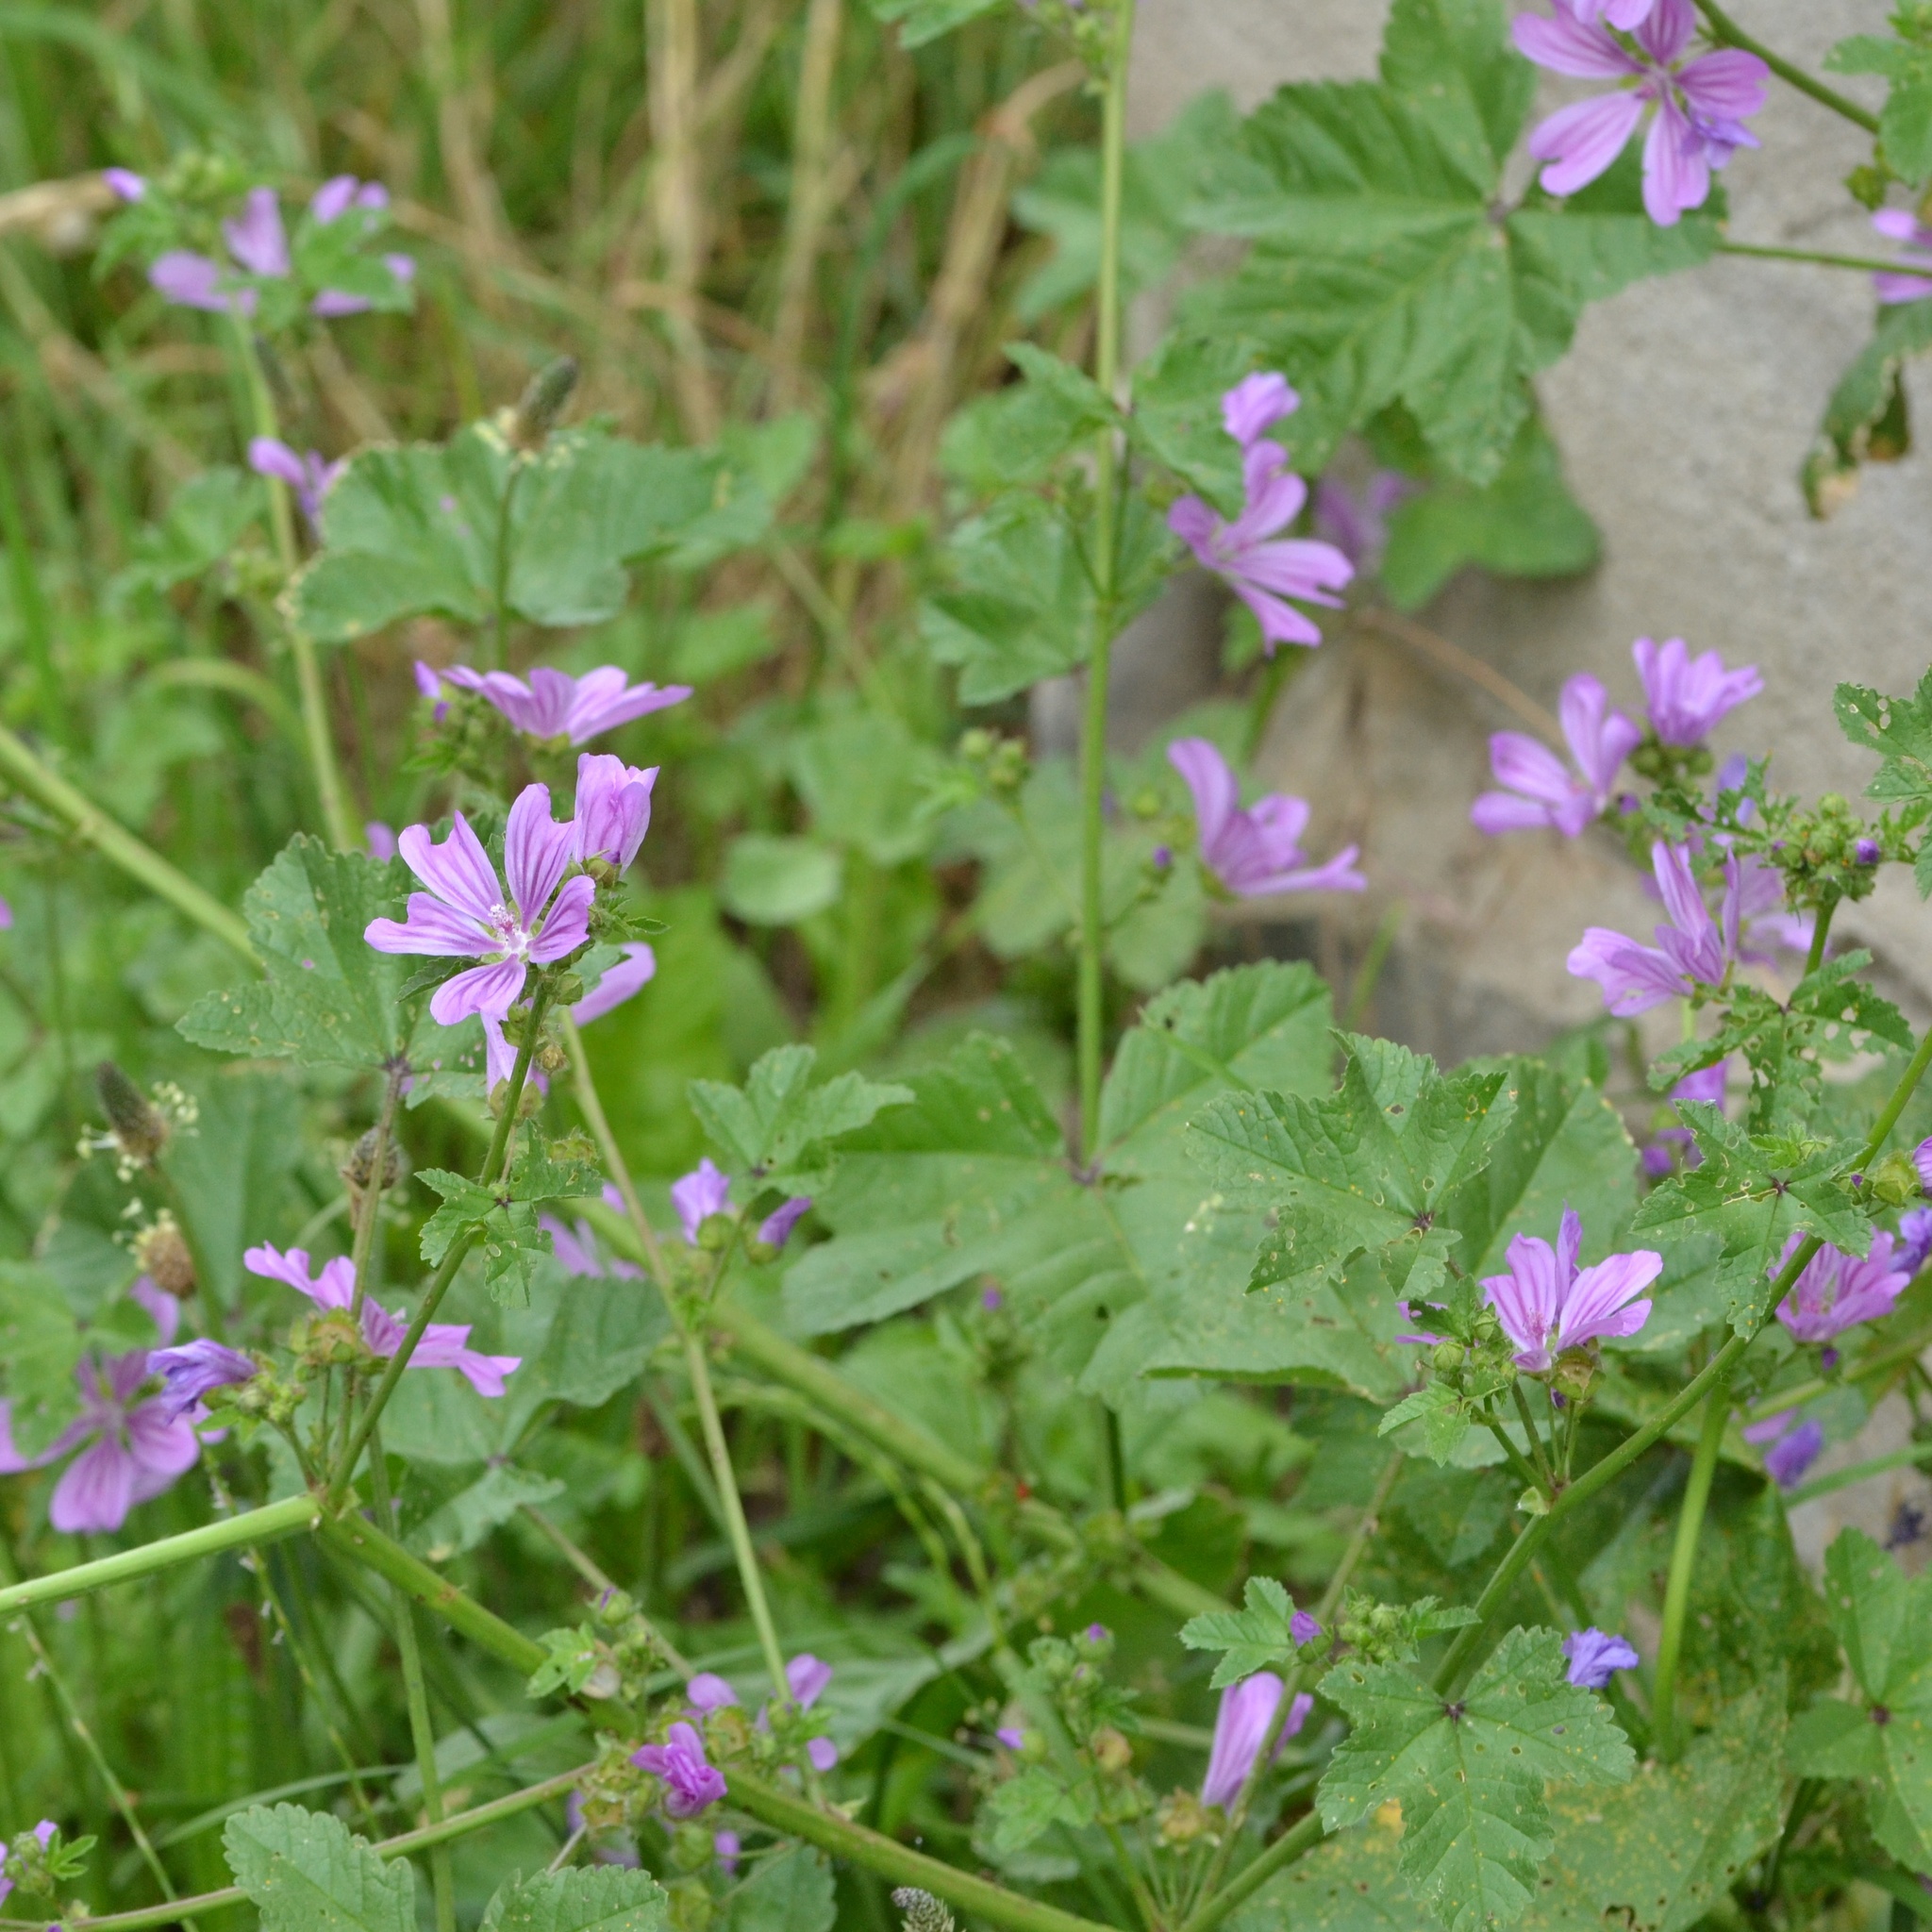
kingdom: Plantae
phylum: Tracheophyta
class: Magnoliopsida
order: Malvales
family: Malvaceae
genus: Malva
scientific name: Malva sylvestris
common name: Common mallow
